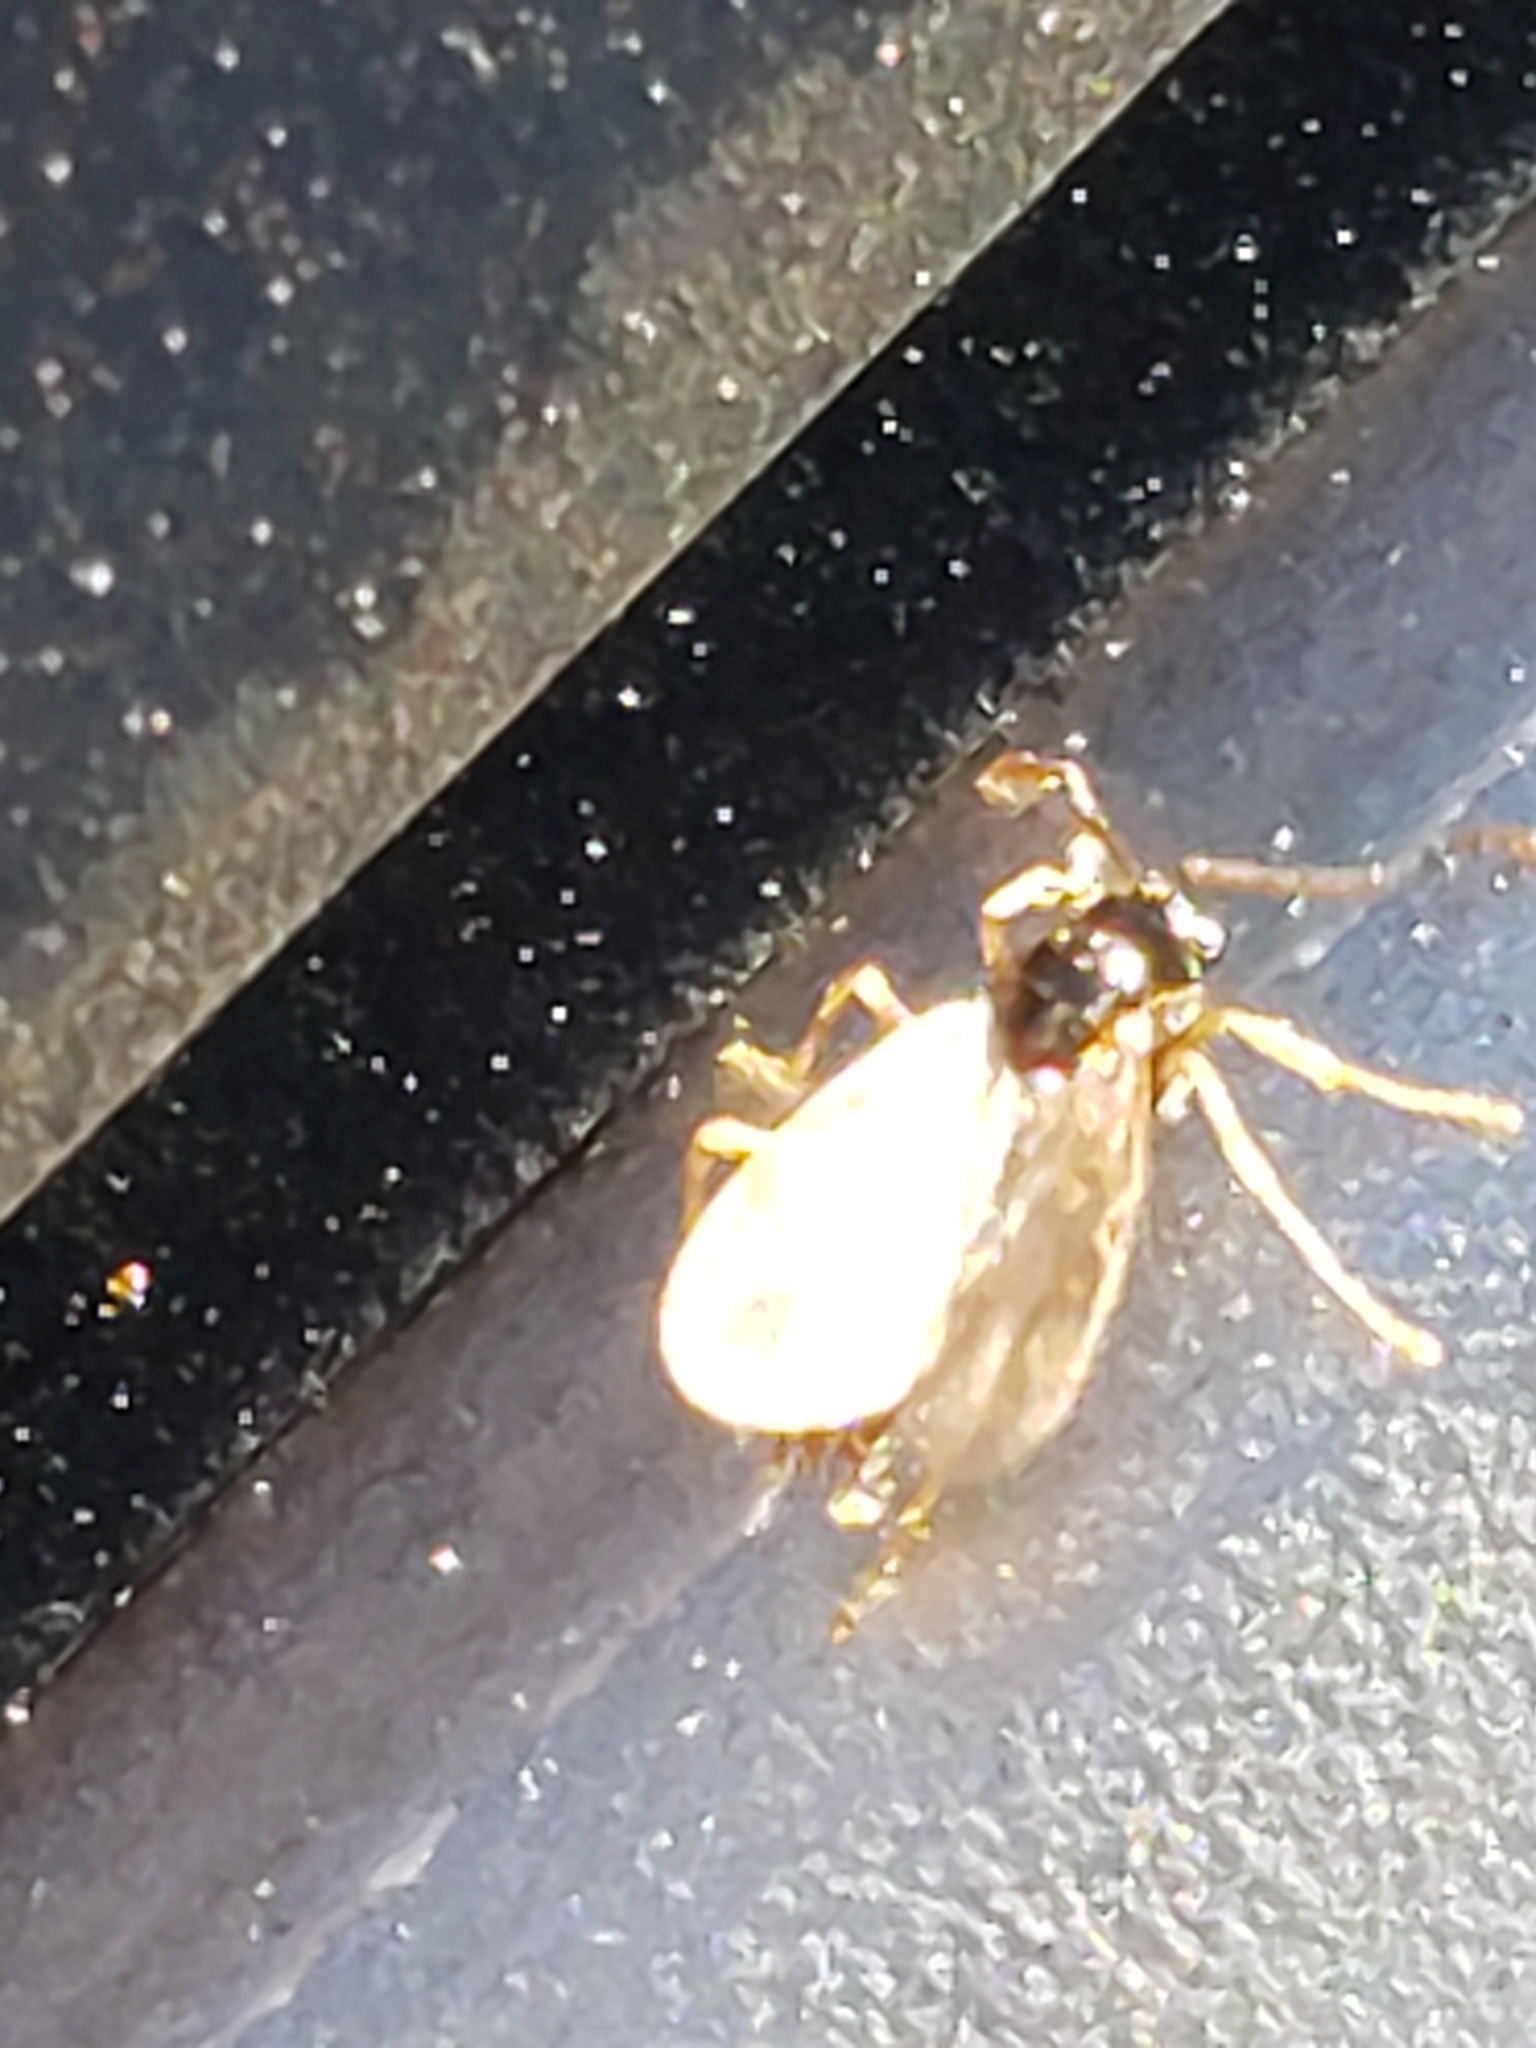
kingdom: Animalia
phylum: Arthropoda
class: Insecta
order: Hymenoptera
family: Formicidae
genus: Prenolepis
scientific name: Prenolepis imparis
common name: Small honey ant
